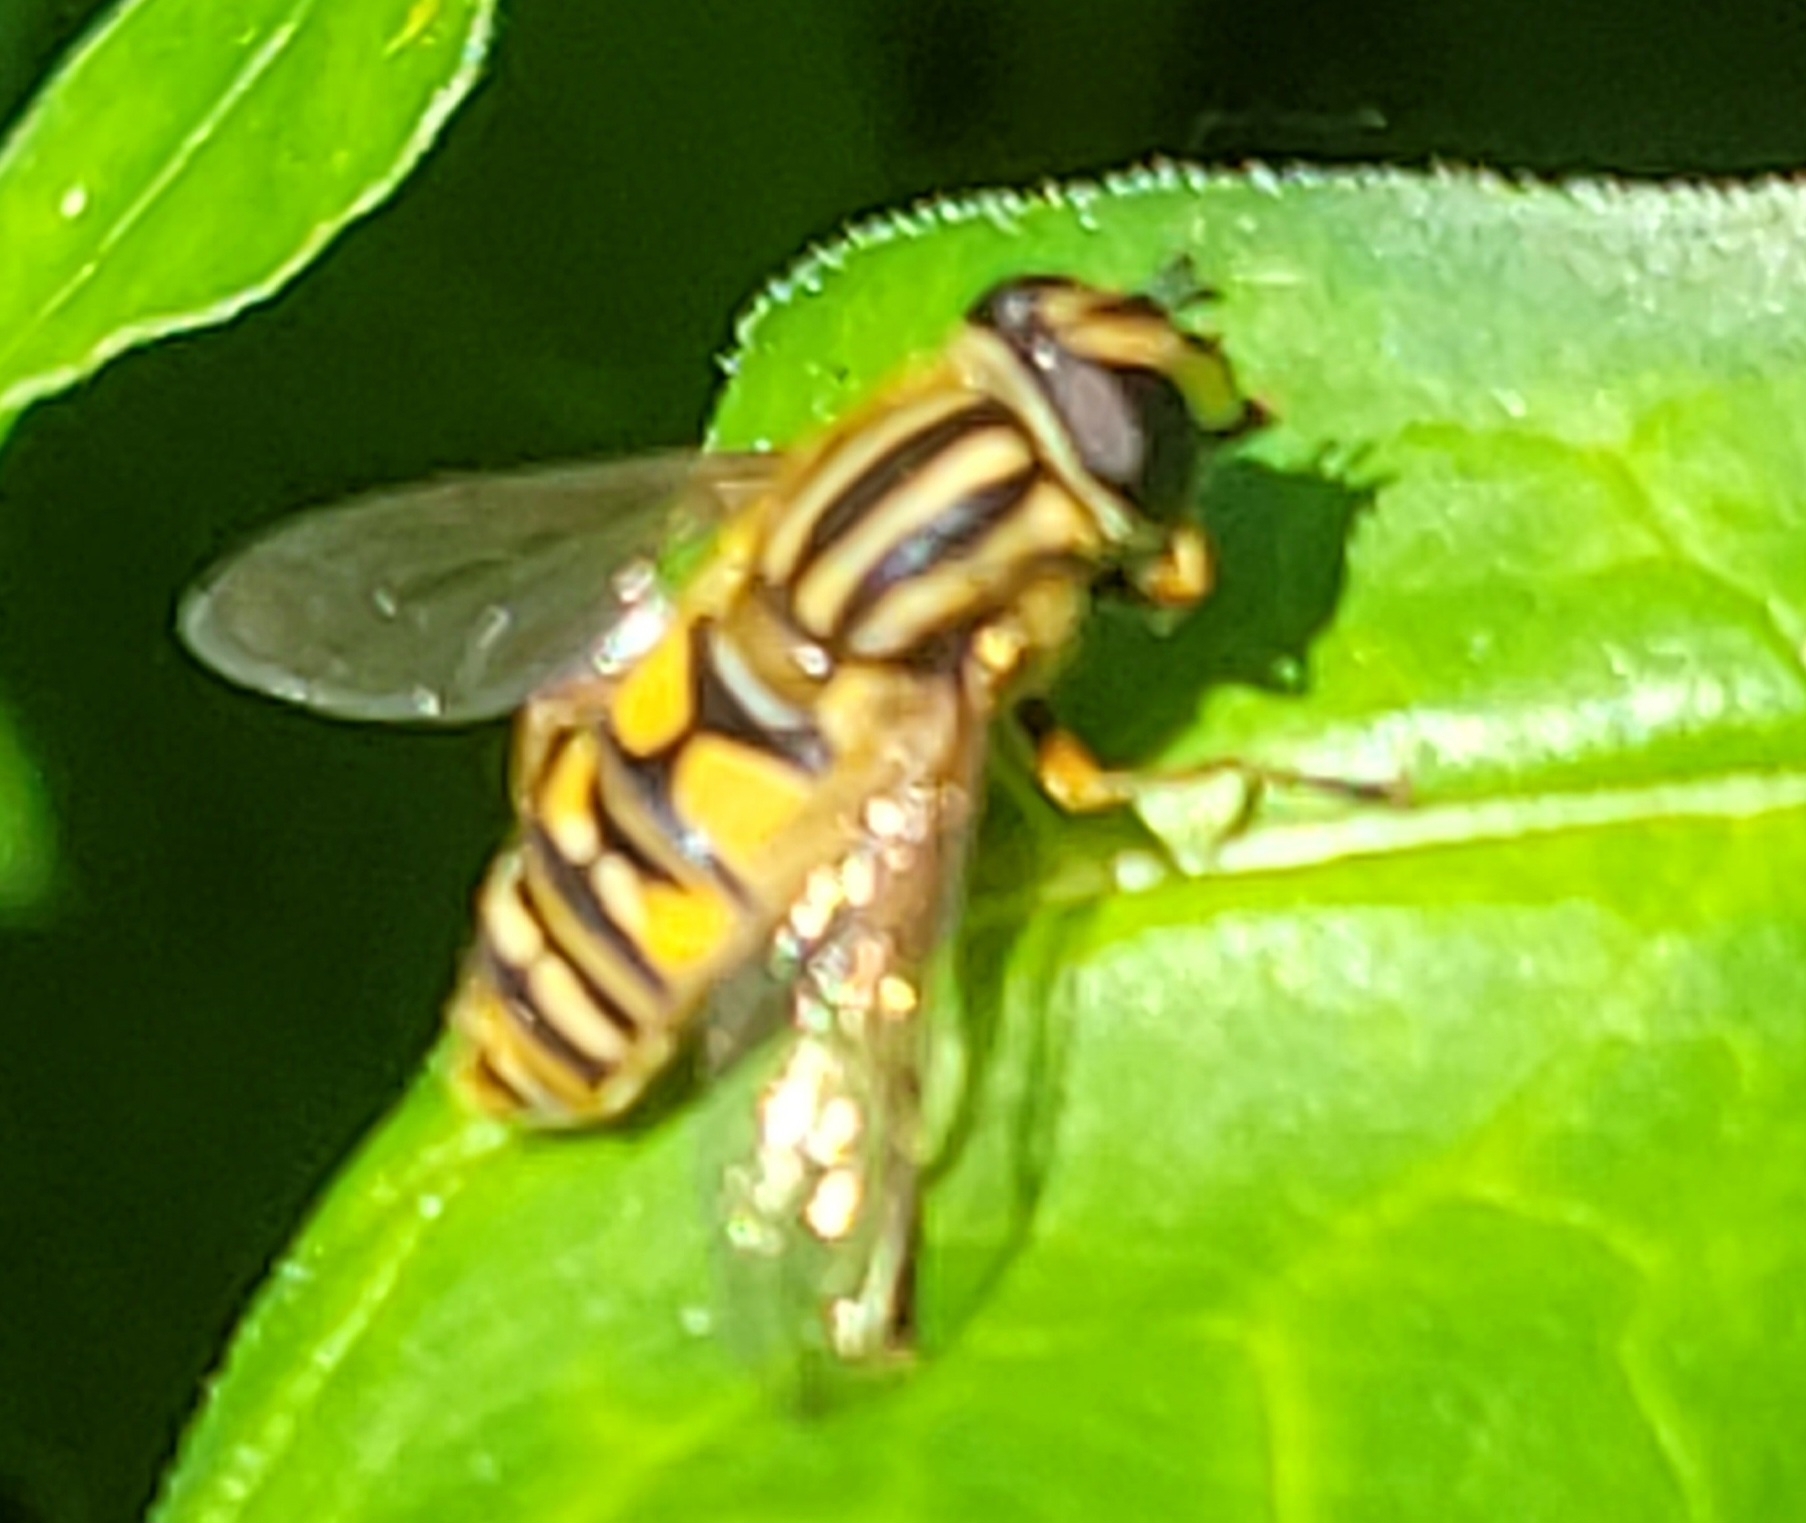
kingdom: Animalia
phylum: Arthropoda
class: Insecta
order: Diptera
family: Syrphidae
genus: Helophilus
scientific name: Helophilus pendulus
